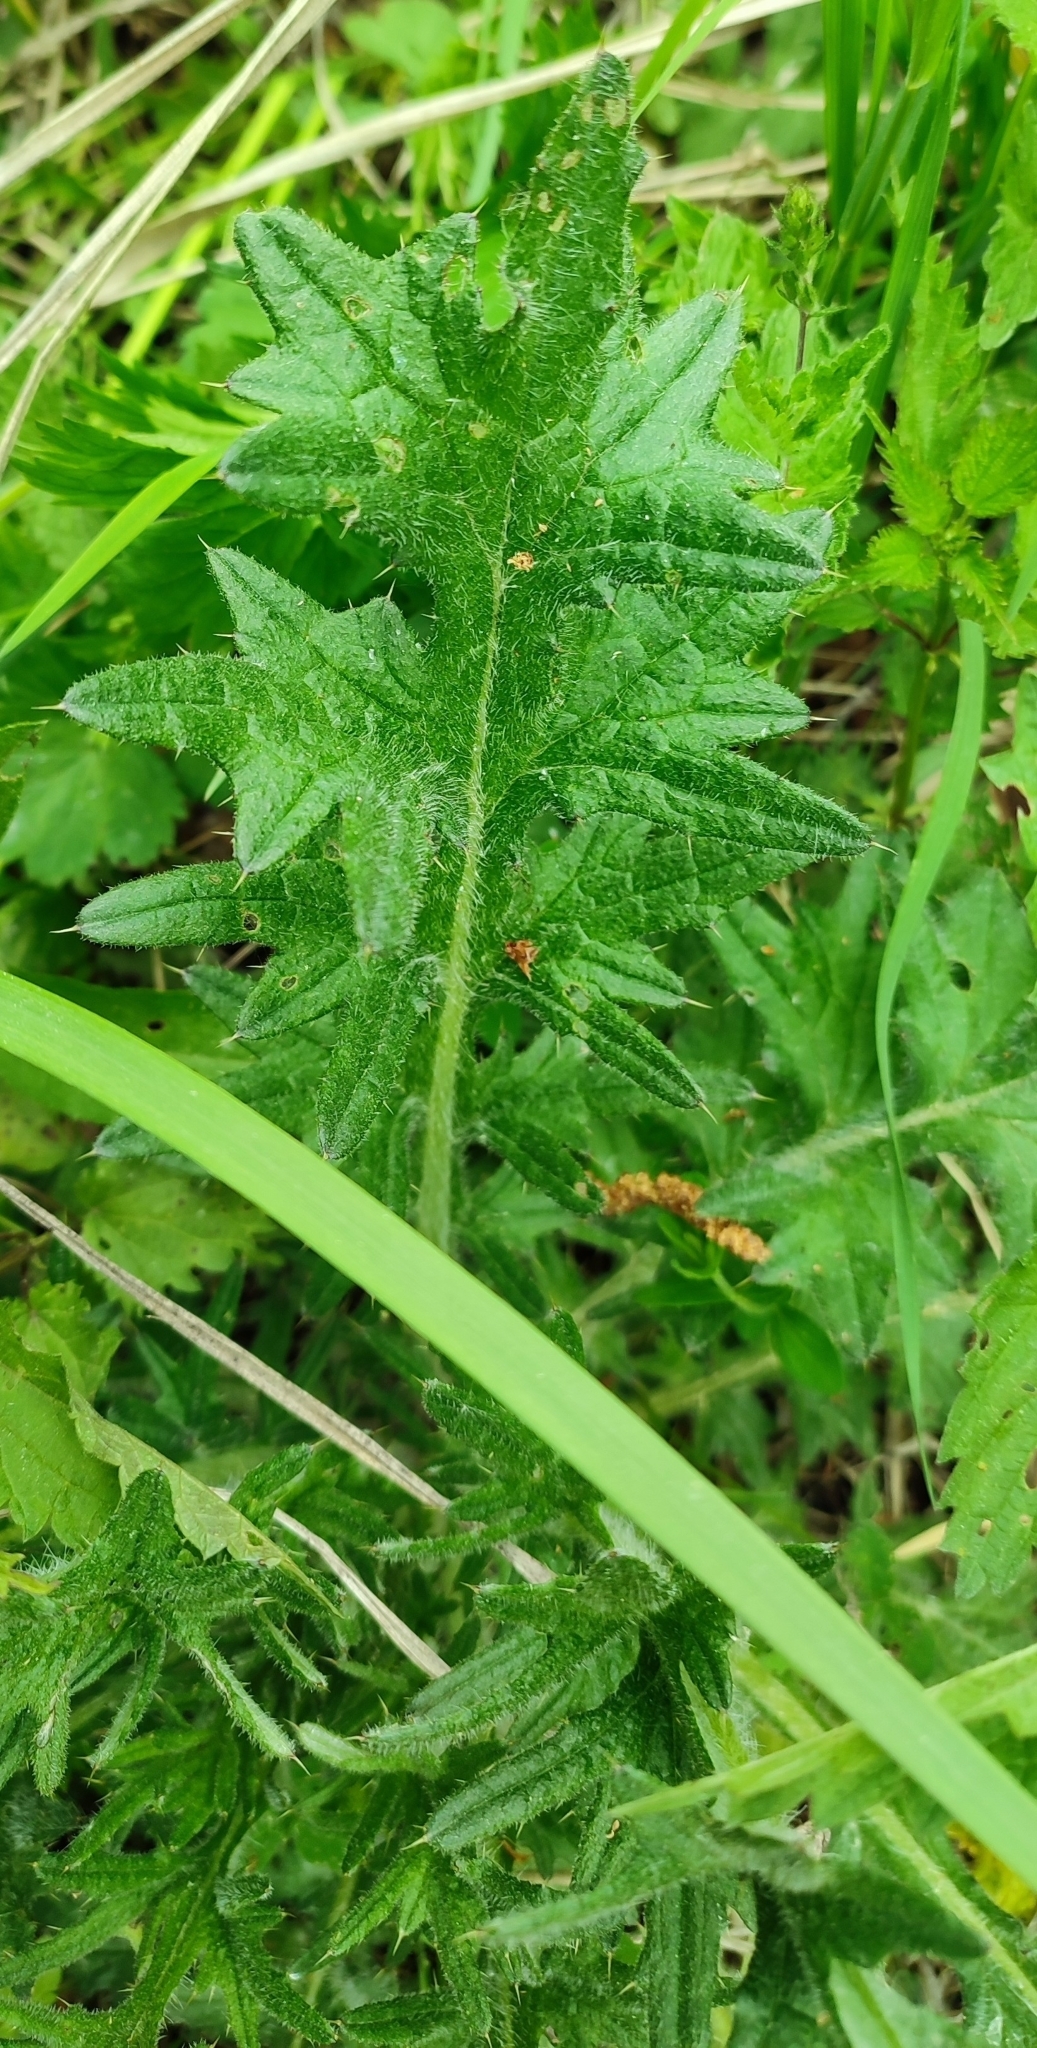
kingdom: Plantae
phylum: Tracheophyta
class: Magnoliopsida
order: Asterales
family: Asteraceae
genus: Cirsium
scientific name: Cirsium vulgare
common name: Bull thistle
